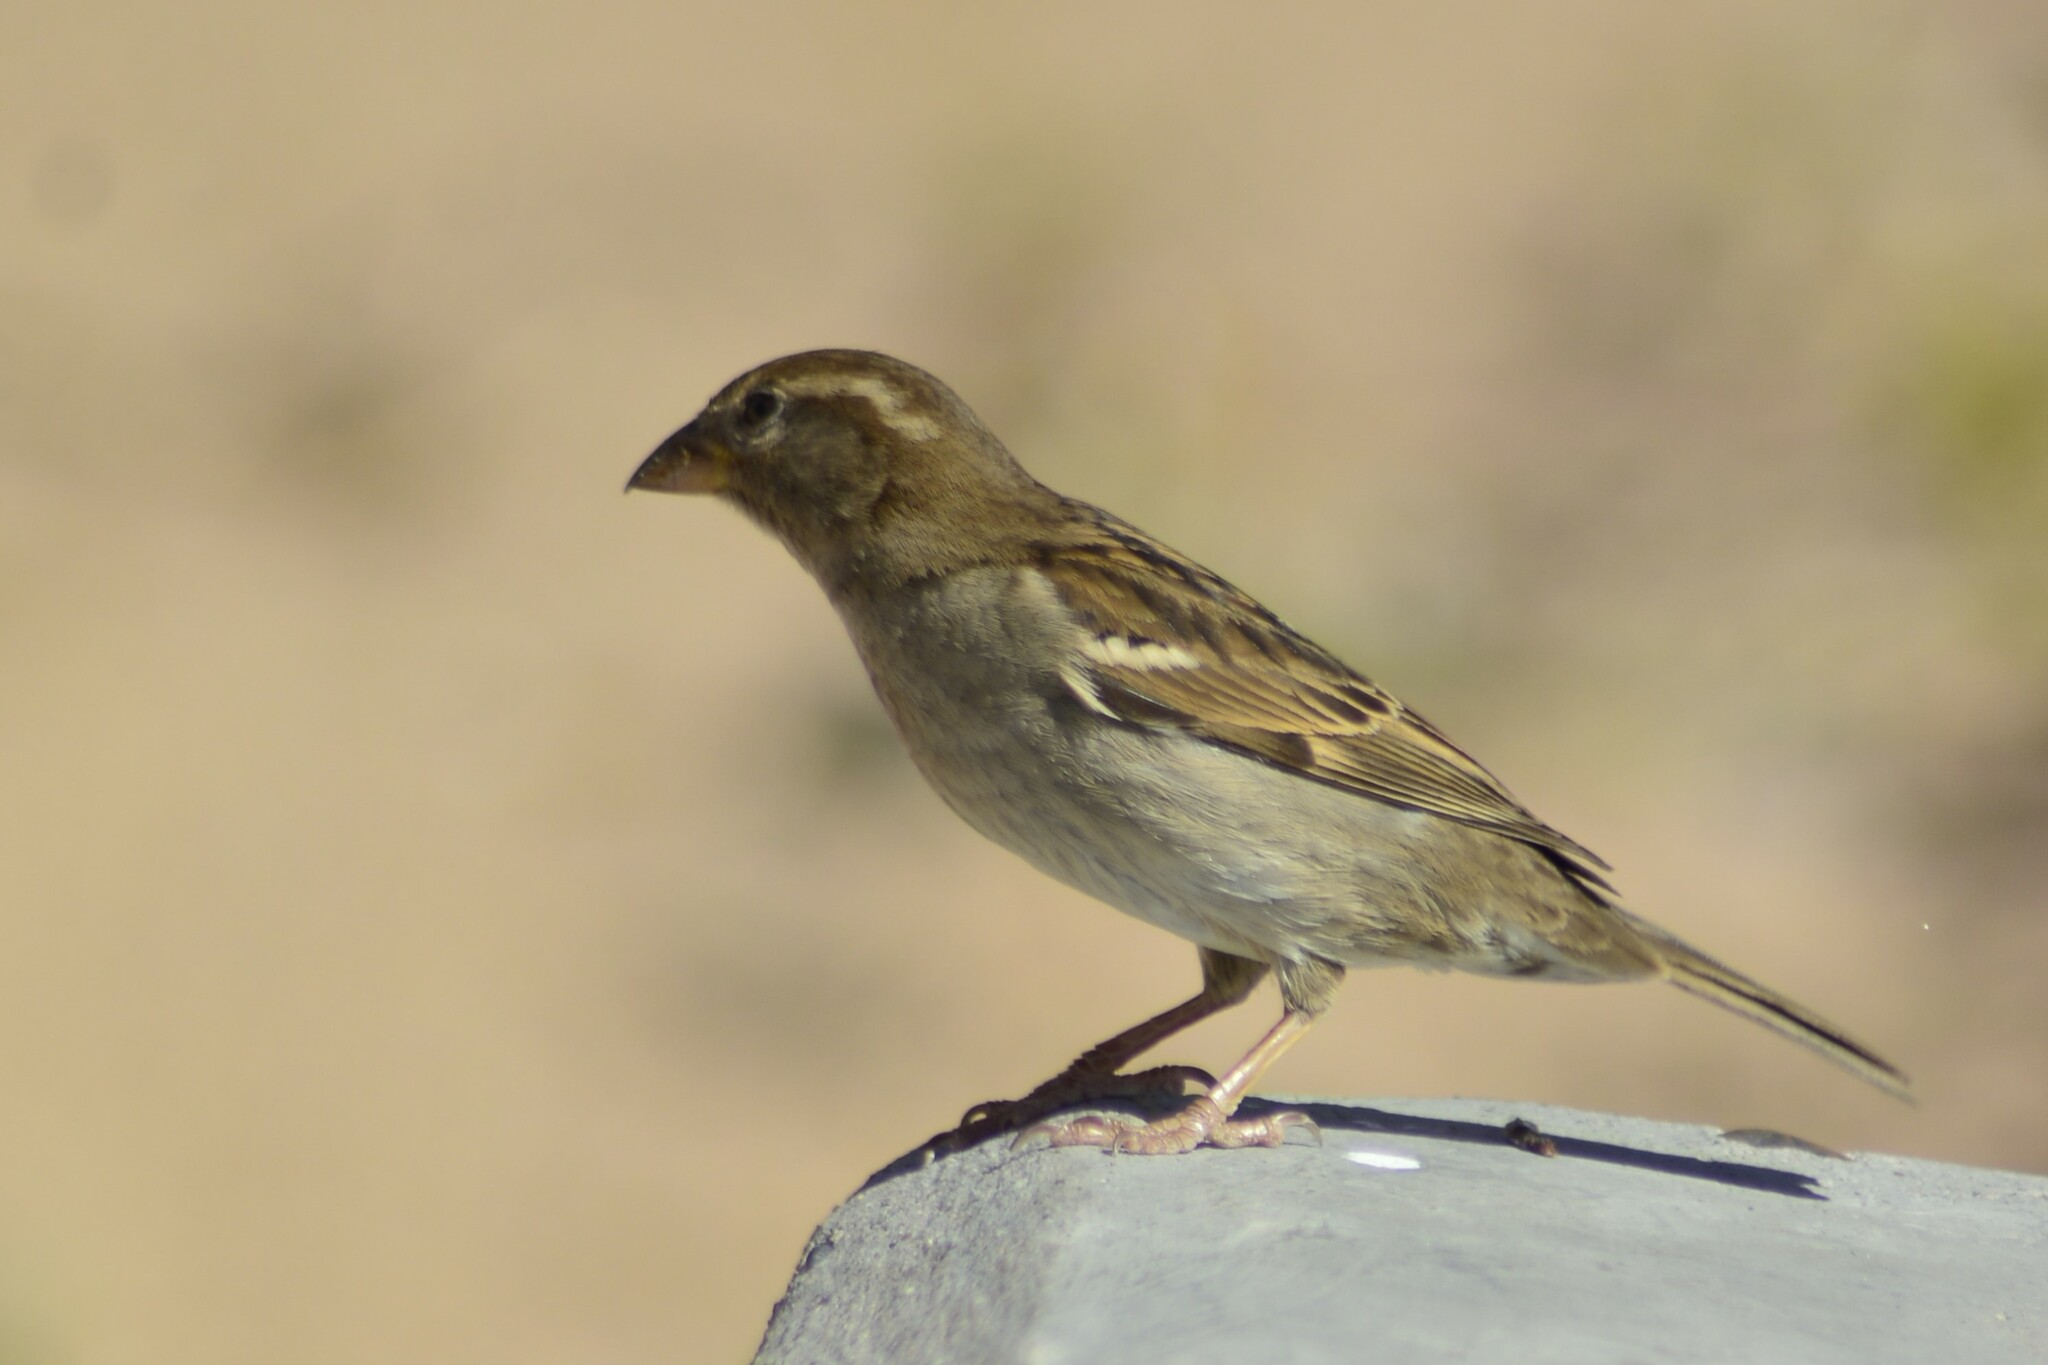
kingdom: Animalia
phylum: Chordata
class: Aves
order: Passeriformes
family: Passeridae
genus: Passer
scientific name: Passer domesticus
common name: House sparrow
